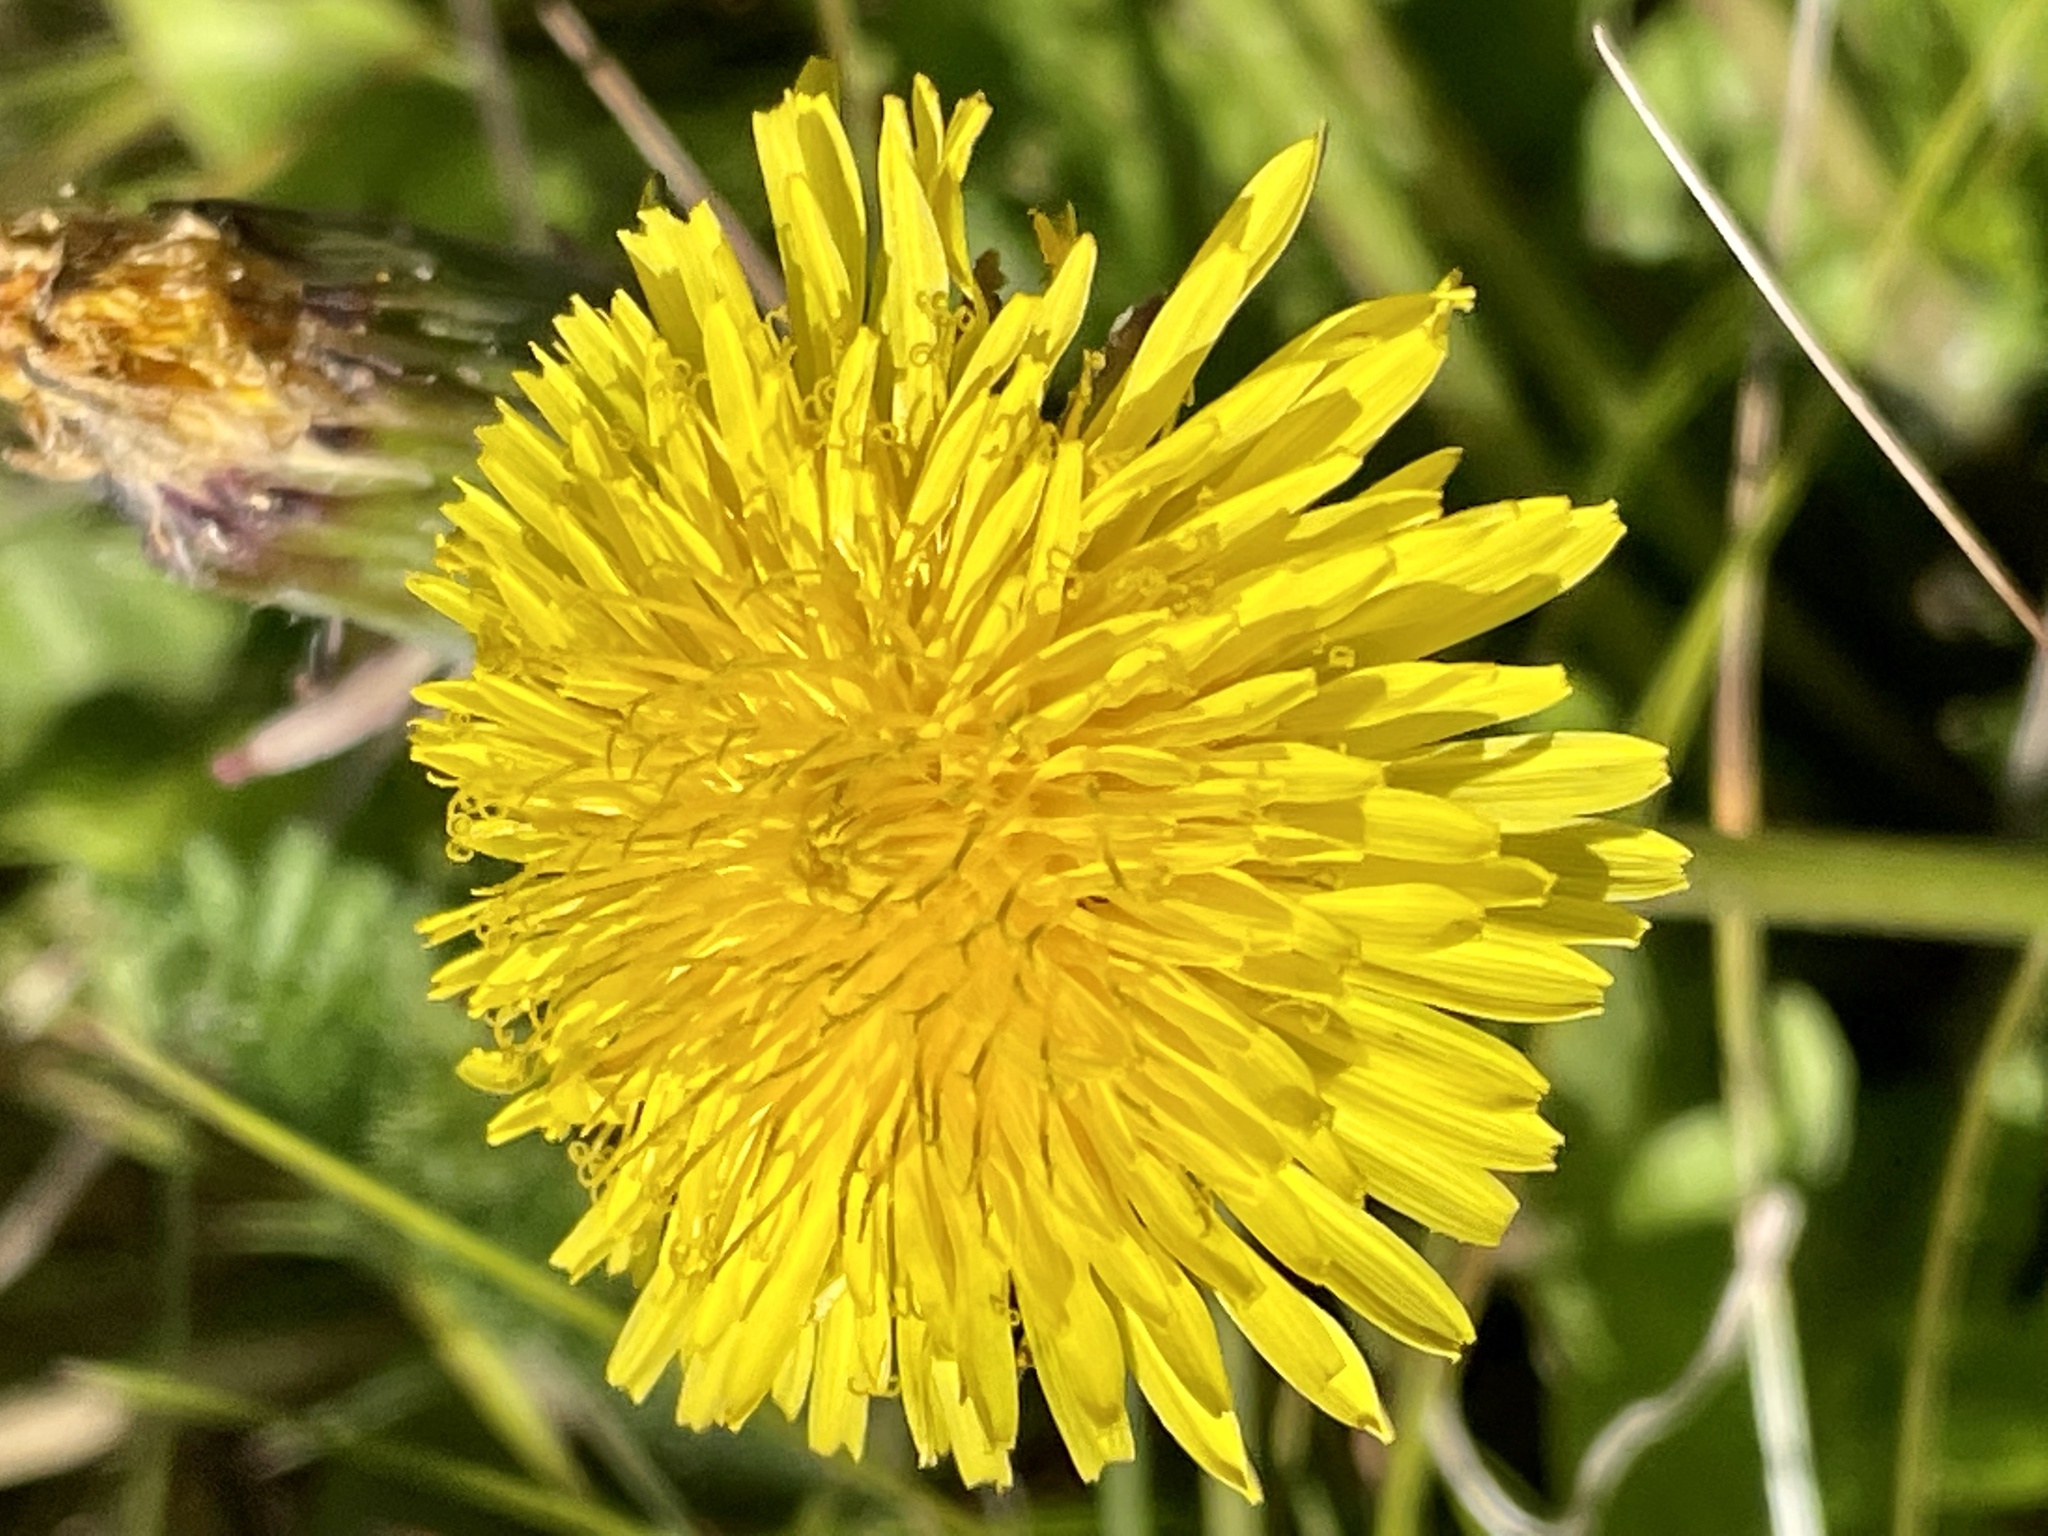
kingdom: Plantae
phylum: Tracheophyta
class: Magnoliopsida
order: Asterales
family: Asteraceae
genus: Taraxacum
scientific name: Taraxacum officinale
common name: Common dandelion
